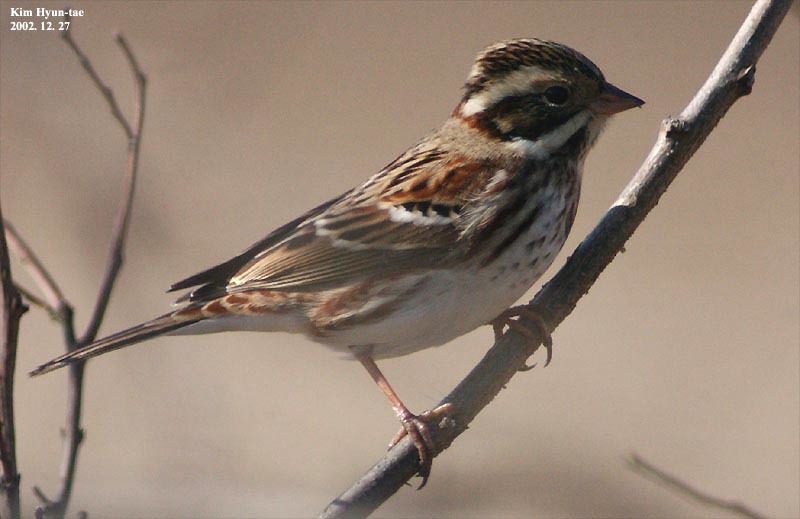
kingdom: Animalia
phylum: Chordata
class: Aves
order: Passeriformes
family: Emberizidae
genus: Emberiza
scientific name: Emberiza rustica
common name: Rustic bunting
